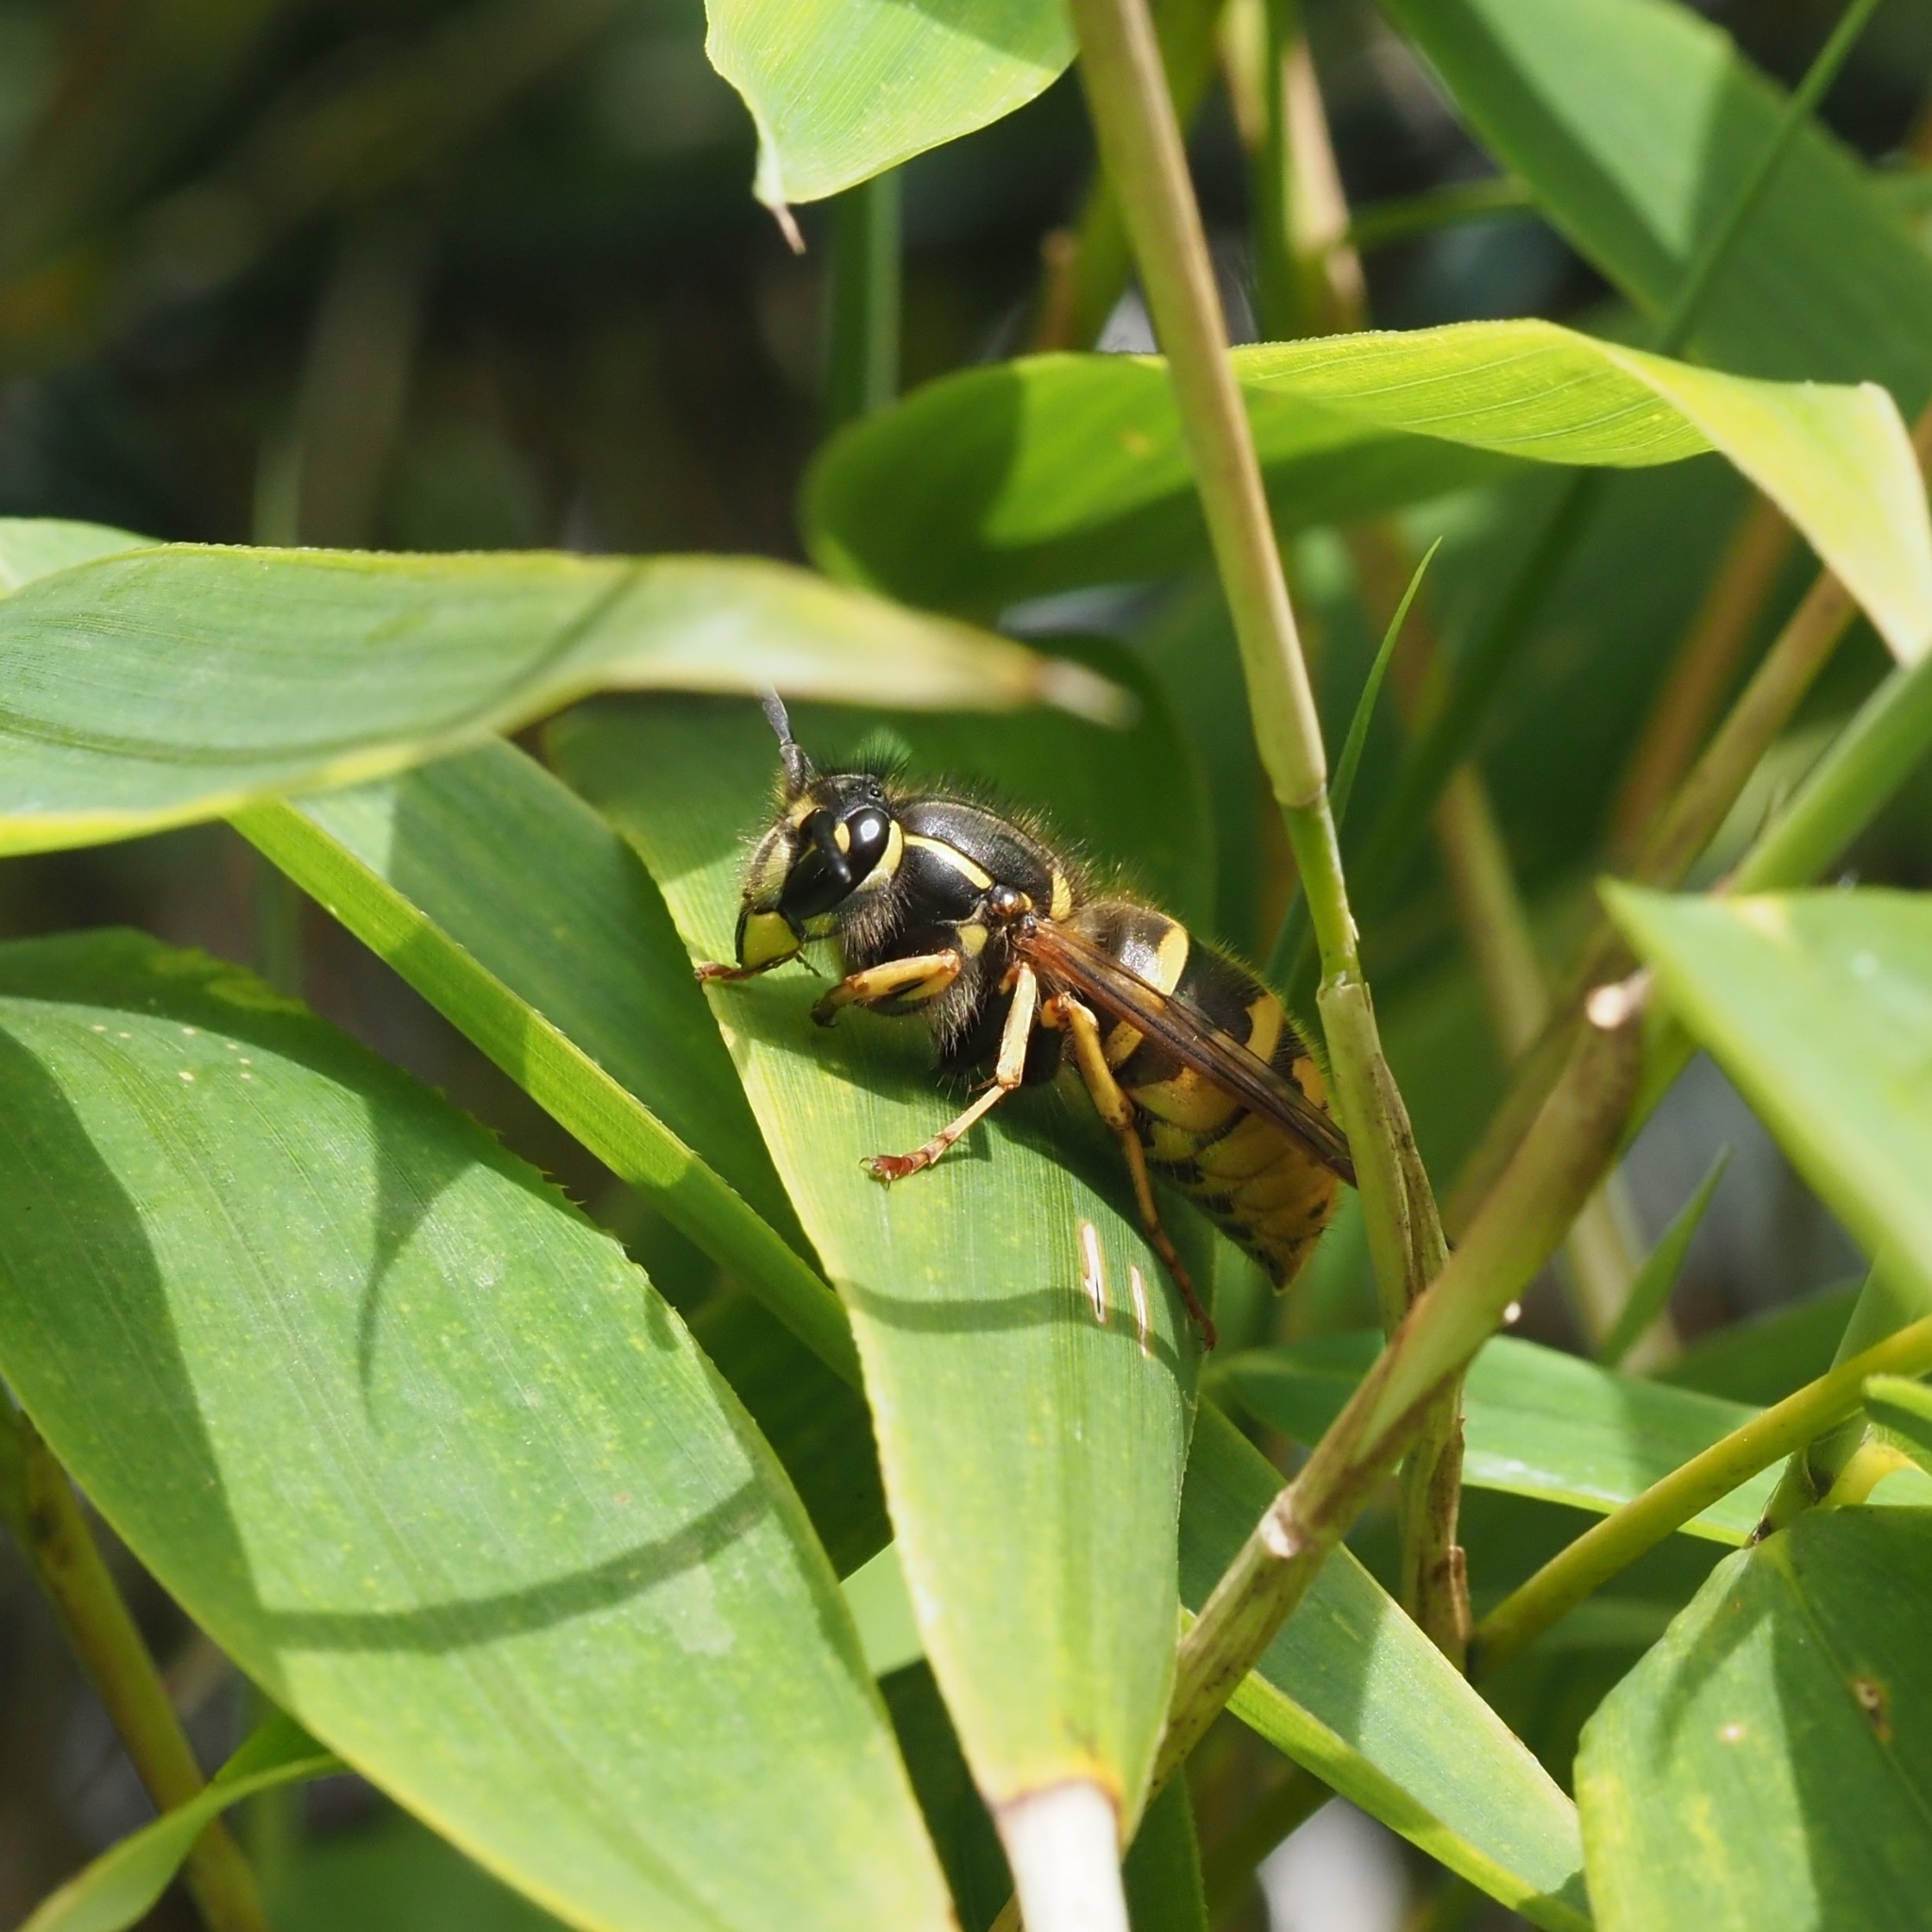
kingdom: Animalia
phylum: Arthropoda
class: Insecta
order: Hymenoptera
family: Vespidae
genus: Vespula
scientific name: Vespula vulgaris
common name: Common wasp
